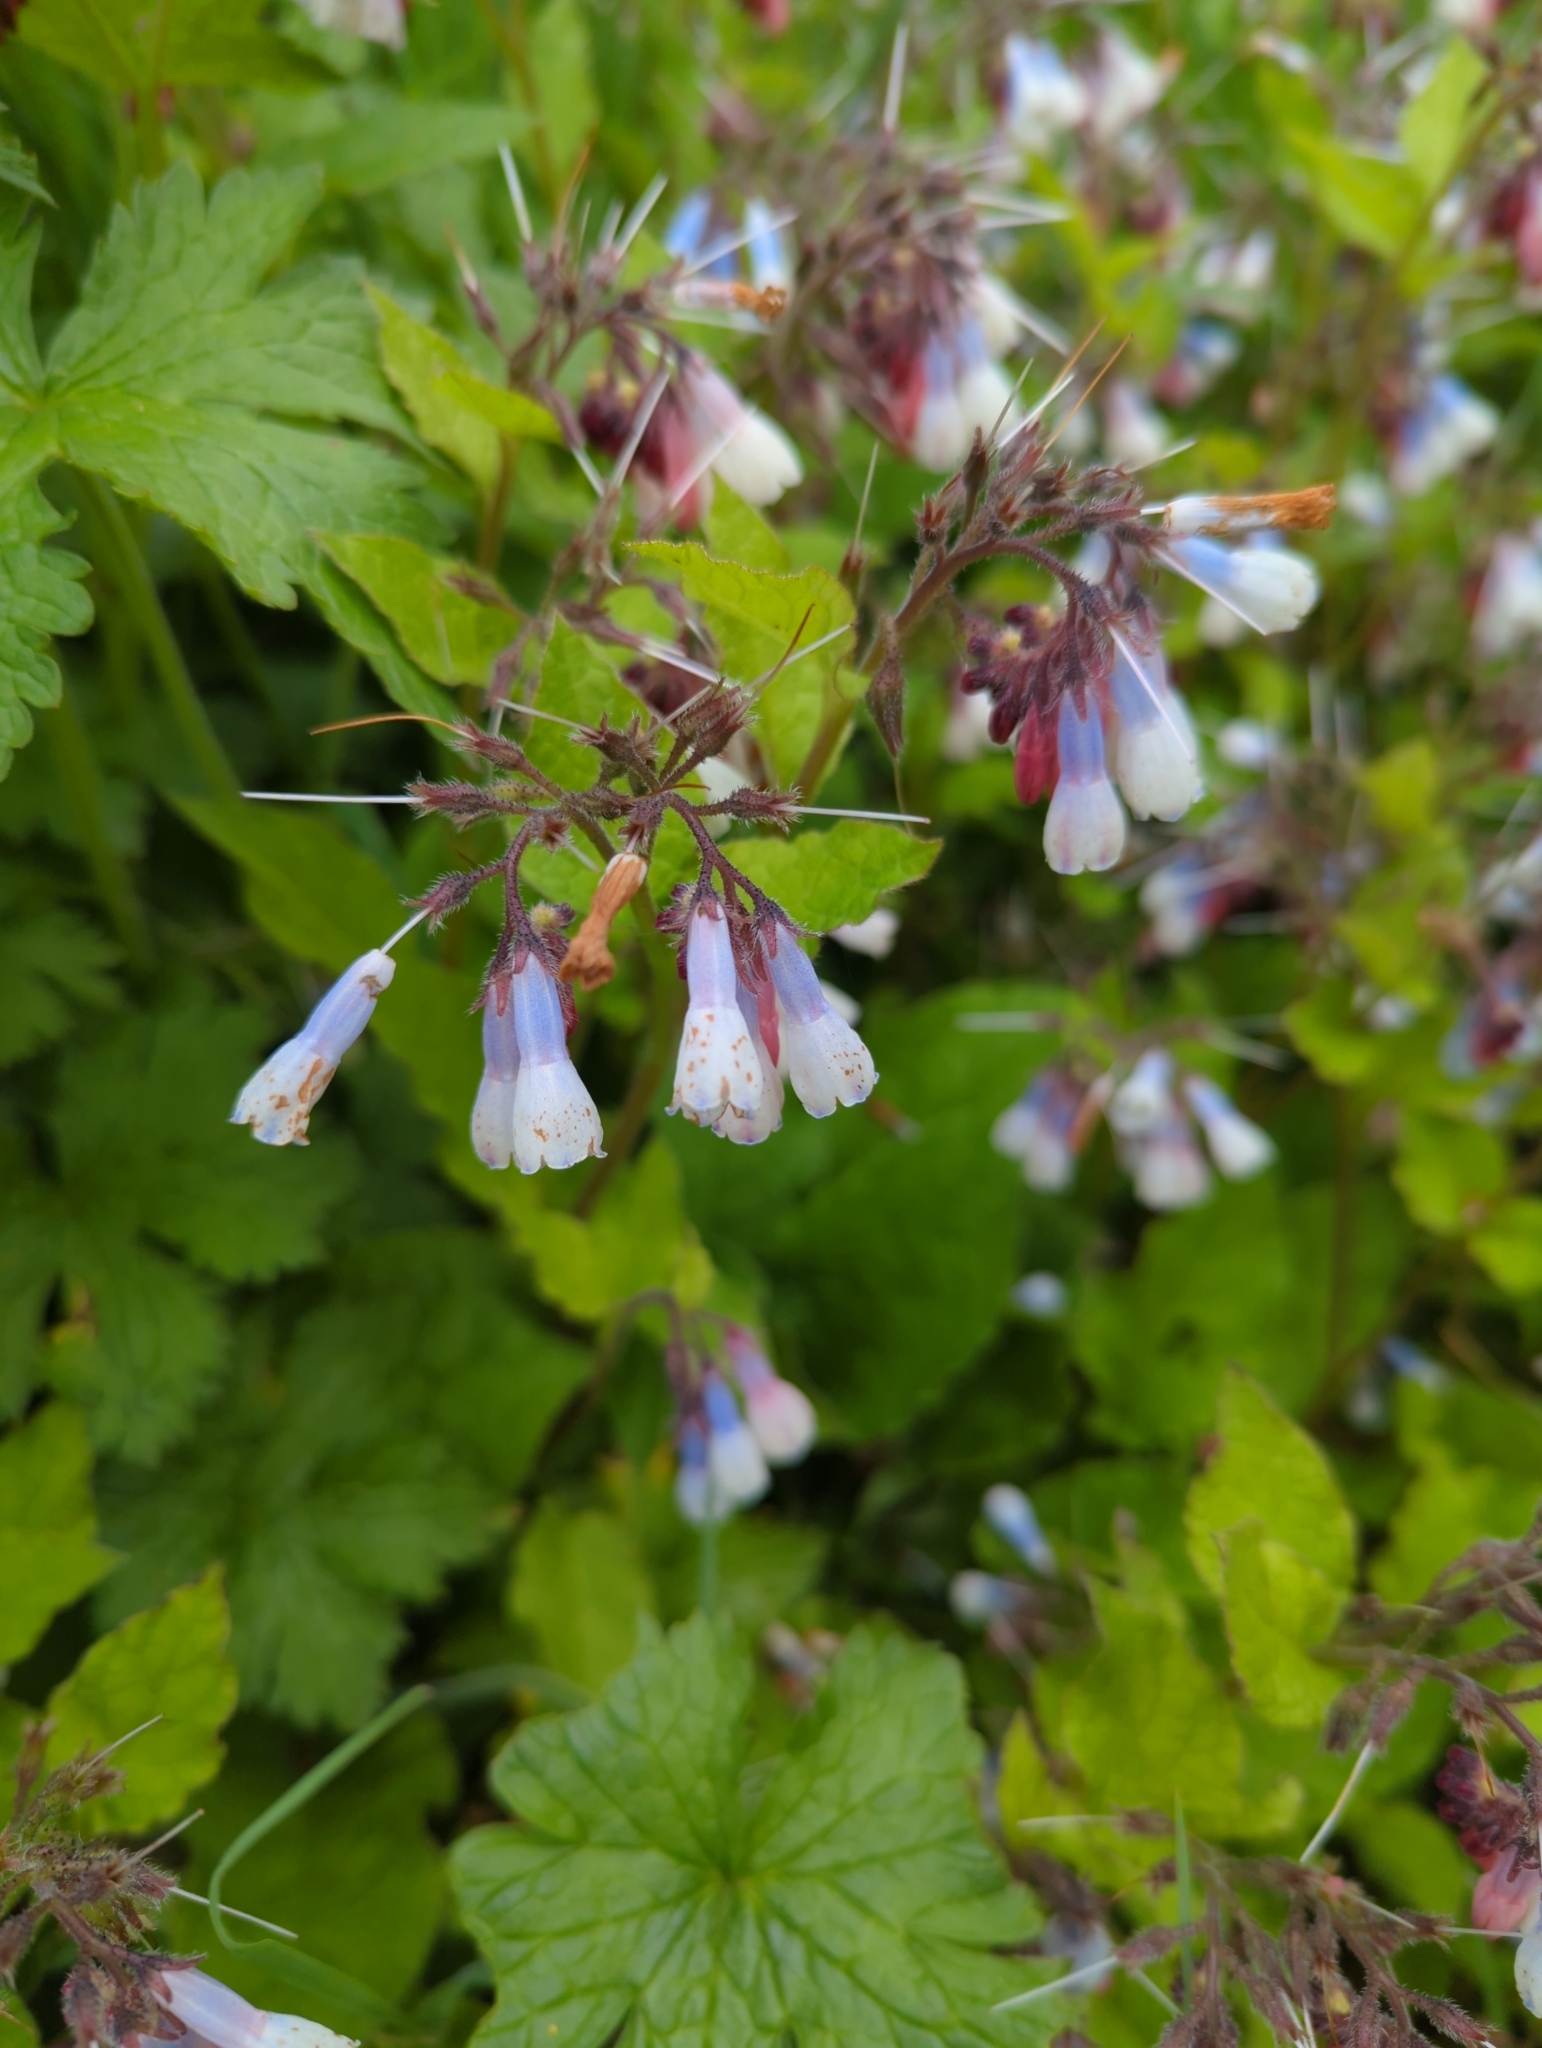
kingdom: Plantae
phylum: Tracheophyta
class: Magnoliopsida
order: Boraginales
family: Boraginaceae
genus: Symphytum
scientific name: Symphytum hidcotense
